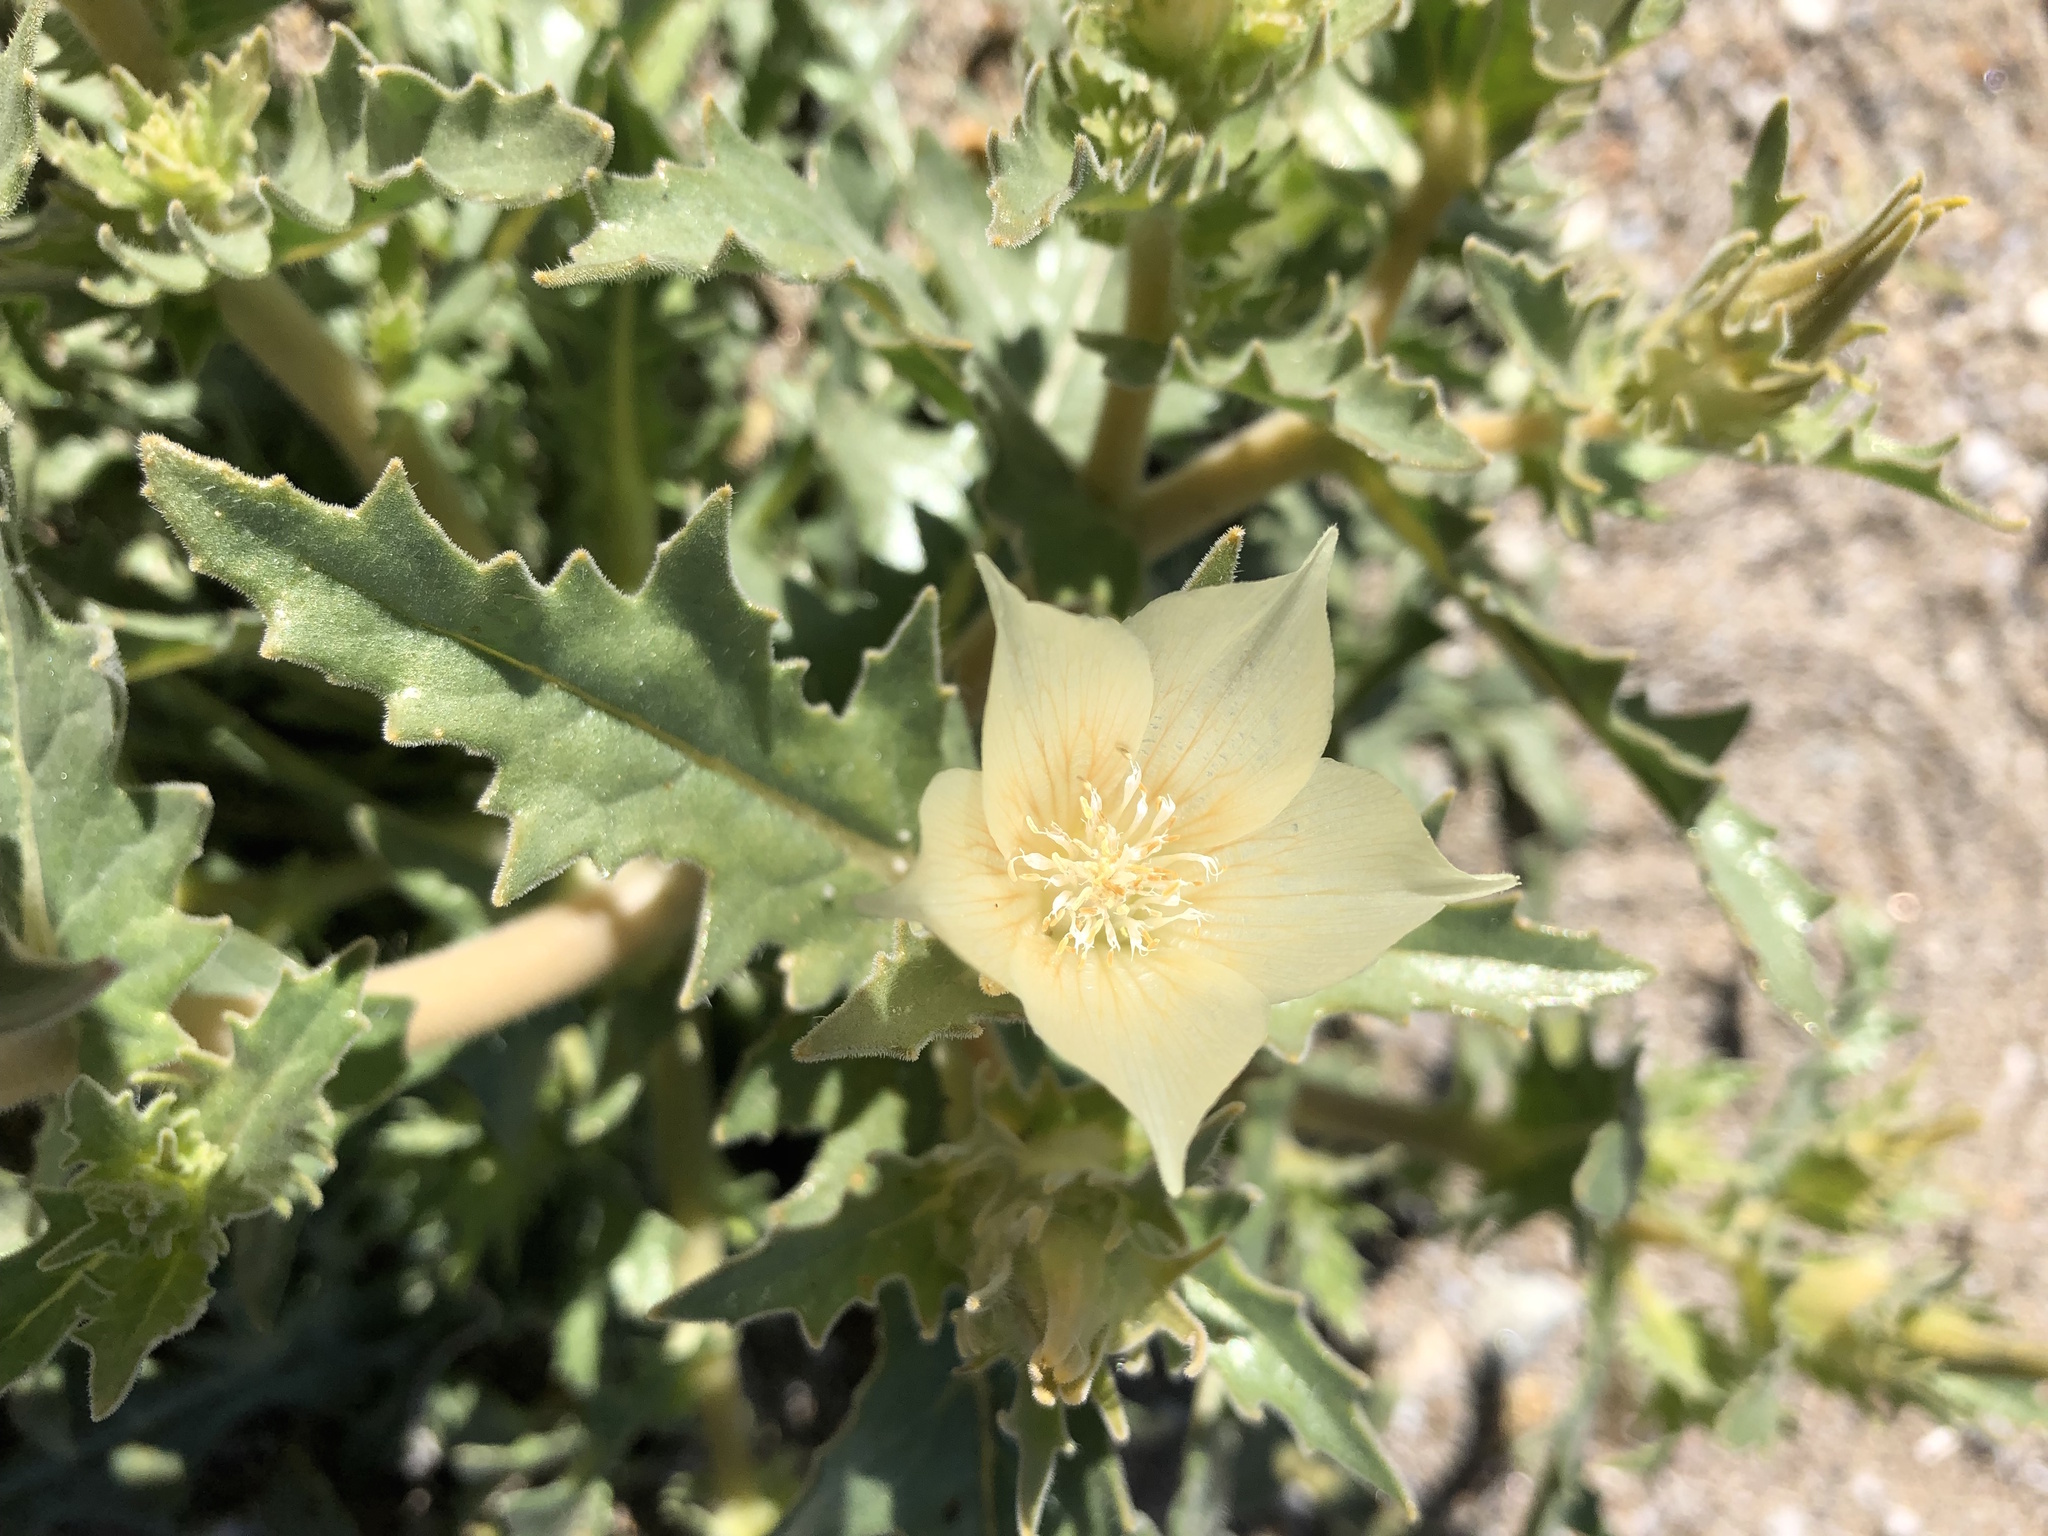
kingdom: Plantae
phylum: Tracheophyta
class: Magnoliopsida
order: Cornales
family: Loasaceae
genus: Mentzelia
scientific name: Mentzelia involucrata
